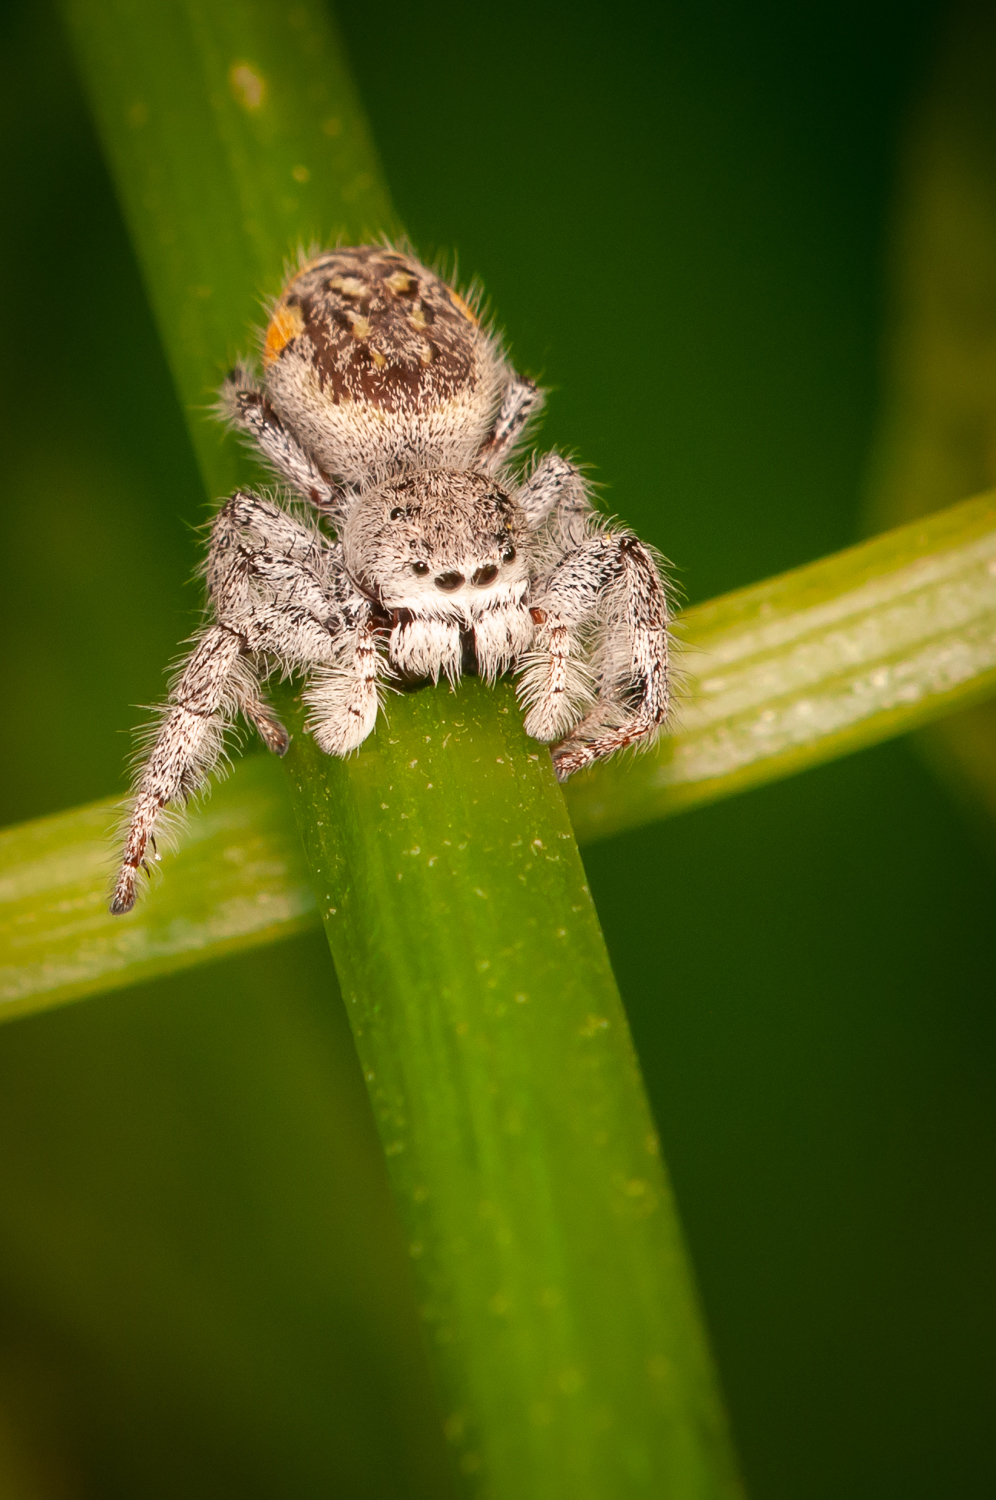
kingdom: Animalia
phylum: Arthropoda
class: Arachnida
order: Araneae
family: Salticidae
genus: Paraphidippus
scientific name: Paraphidippus fartilis
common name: Jumping spiders
